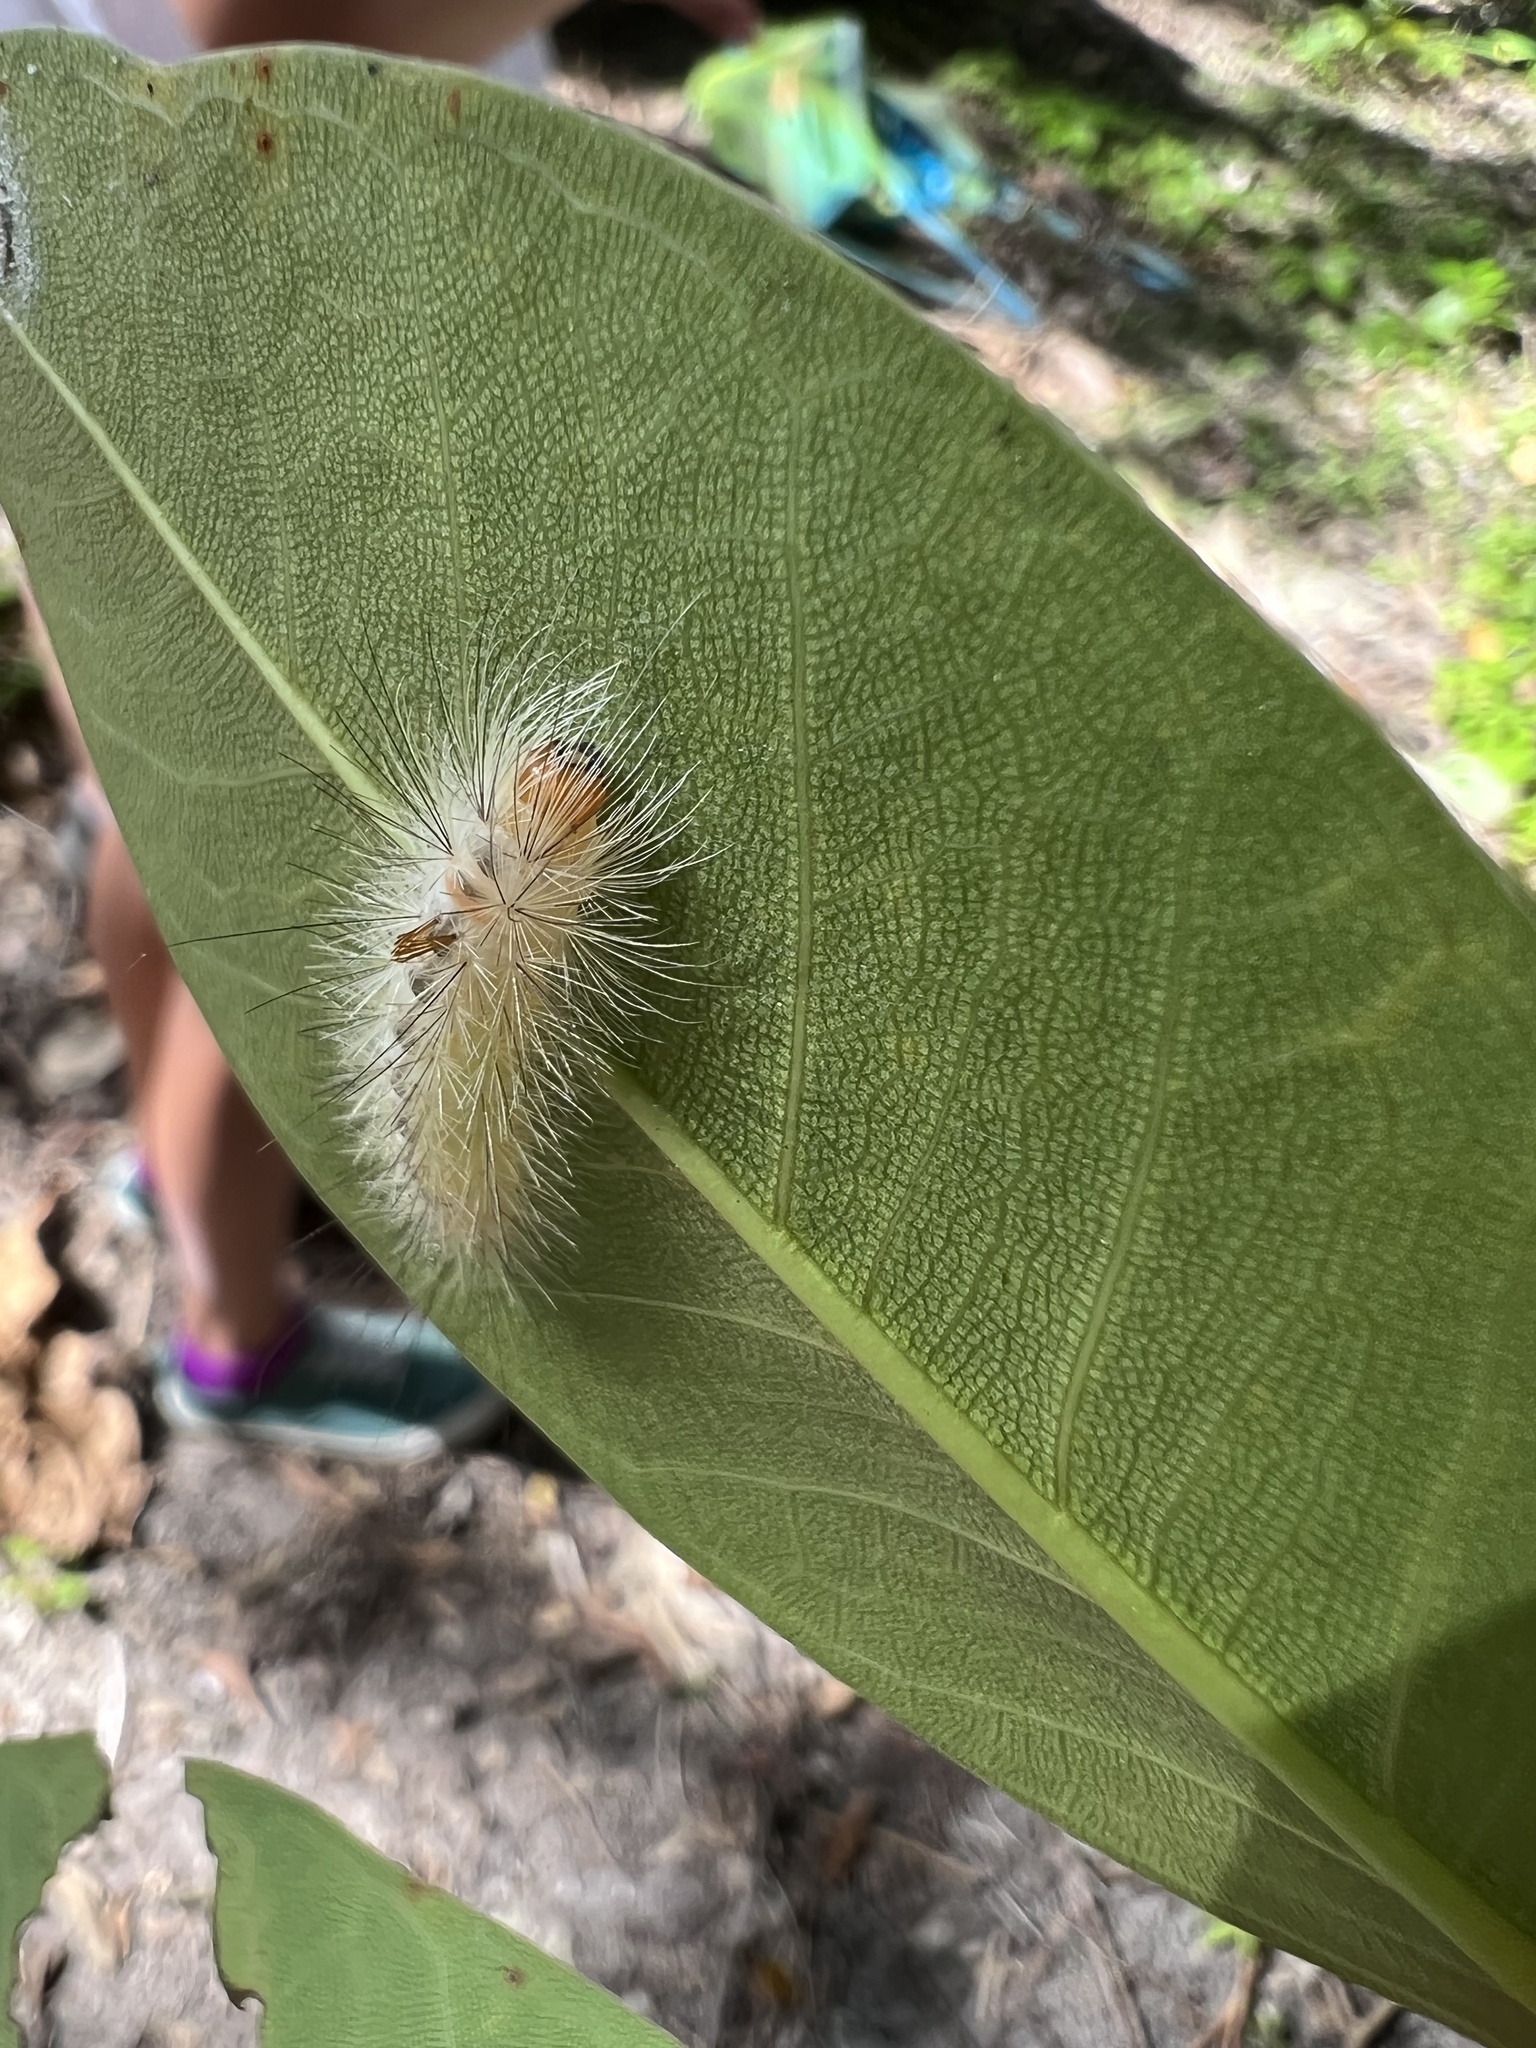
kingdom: Animalia
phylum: Arthropoda
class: Insecta
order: Lepidoptera
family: Erebidae
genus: Lymire
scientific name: Lymire edwardsii
